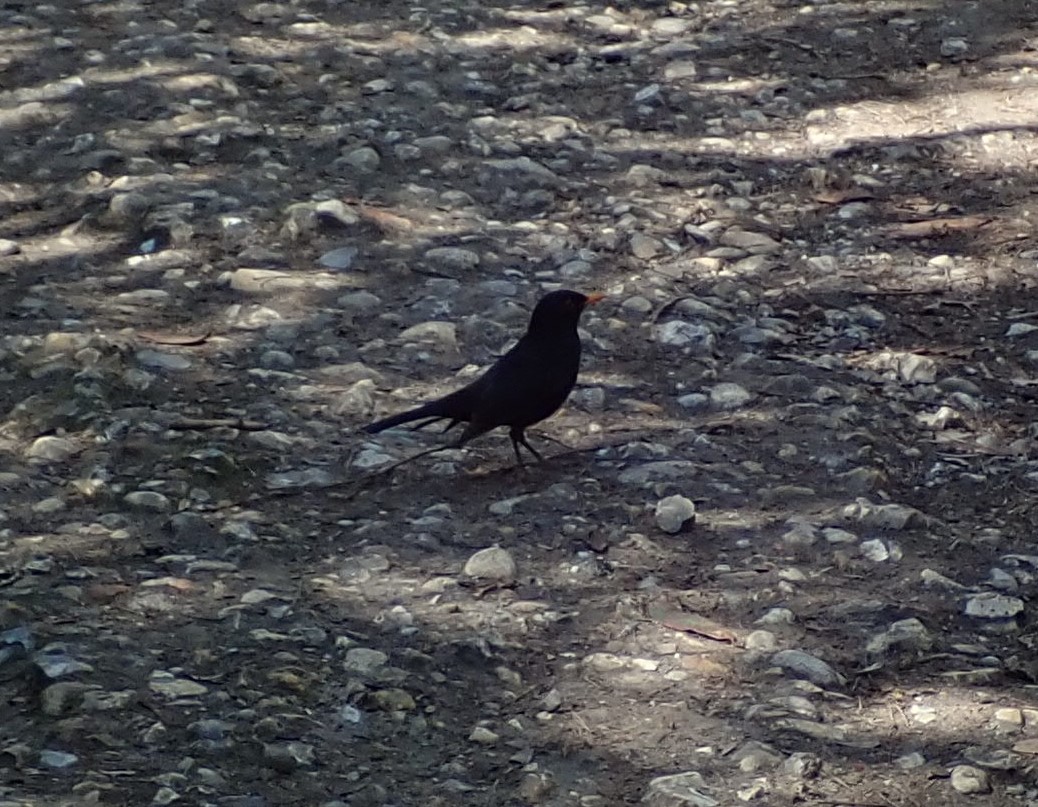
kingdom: Animalia
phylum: Chordata
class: Aves
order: Passeriformes
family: Turdidae
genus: Turdus
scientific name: Turdus merula
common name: Common blackbird
